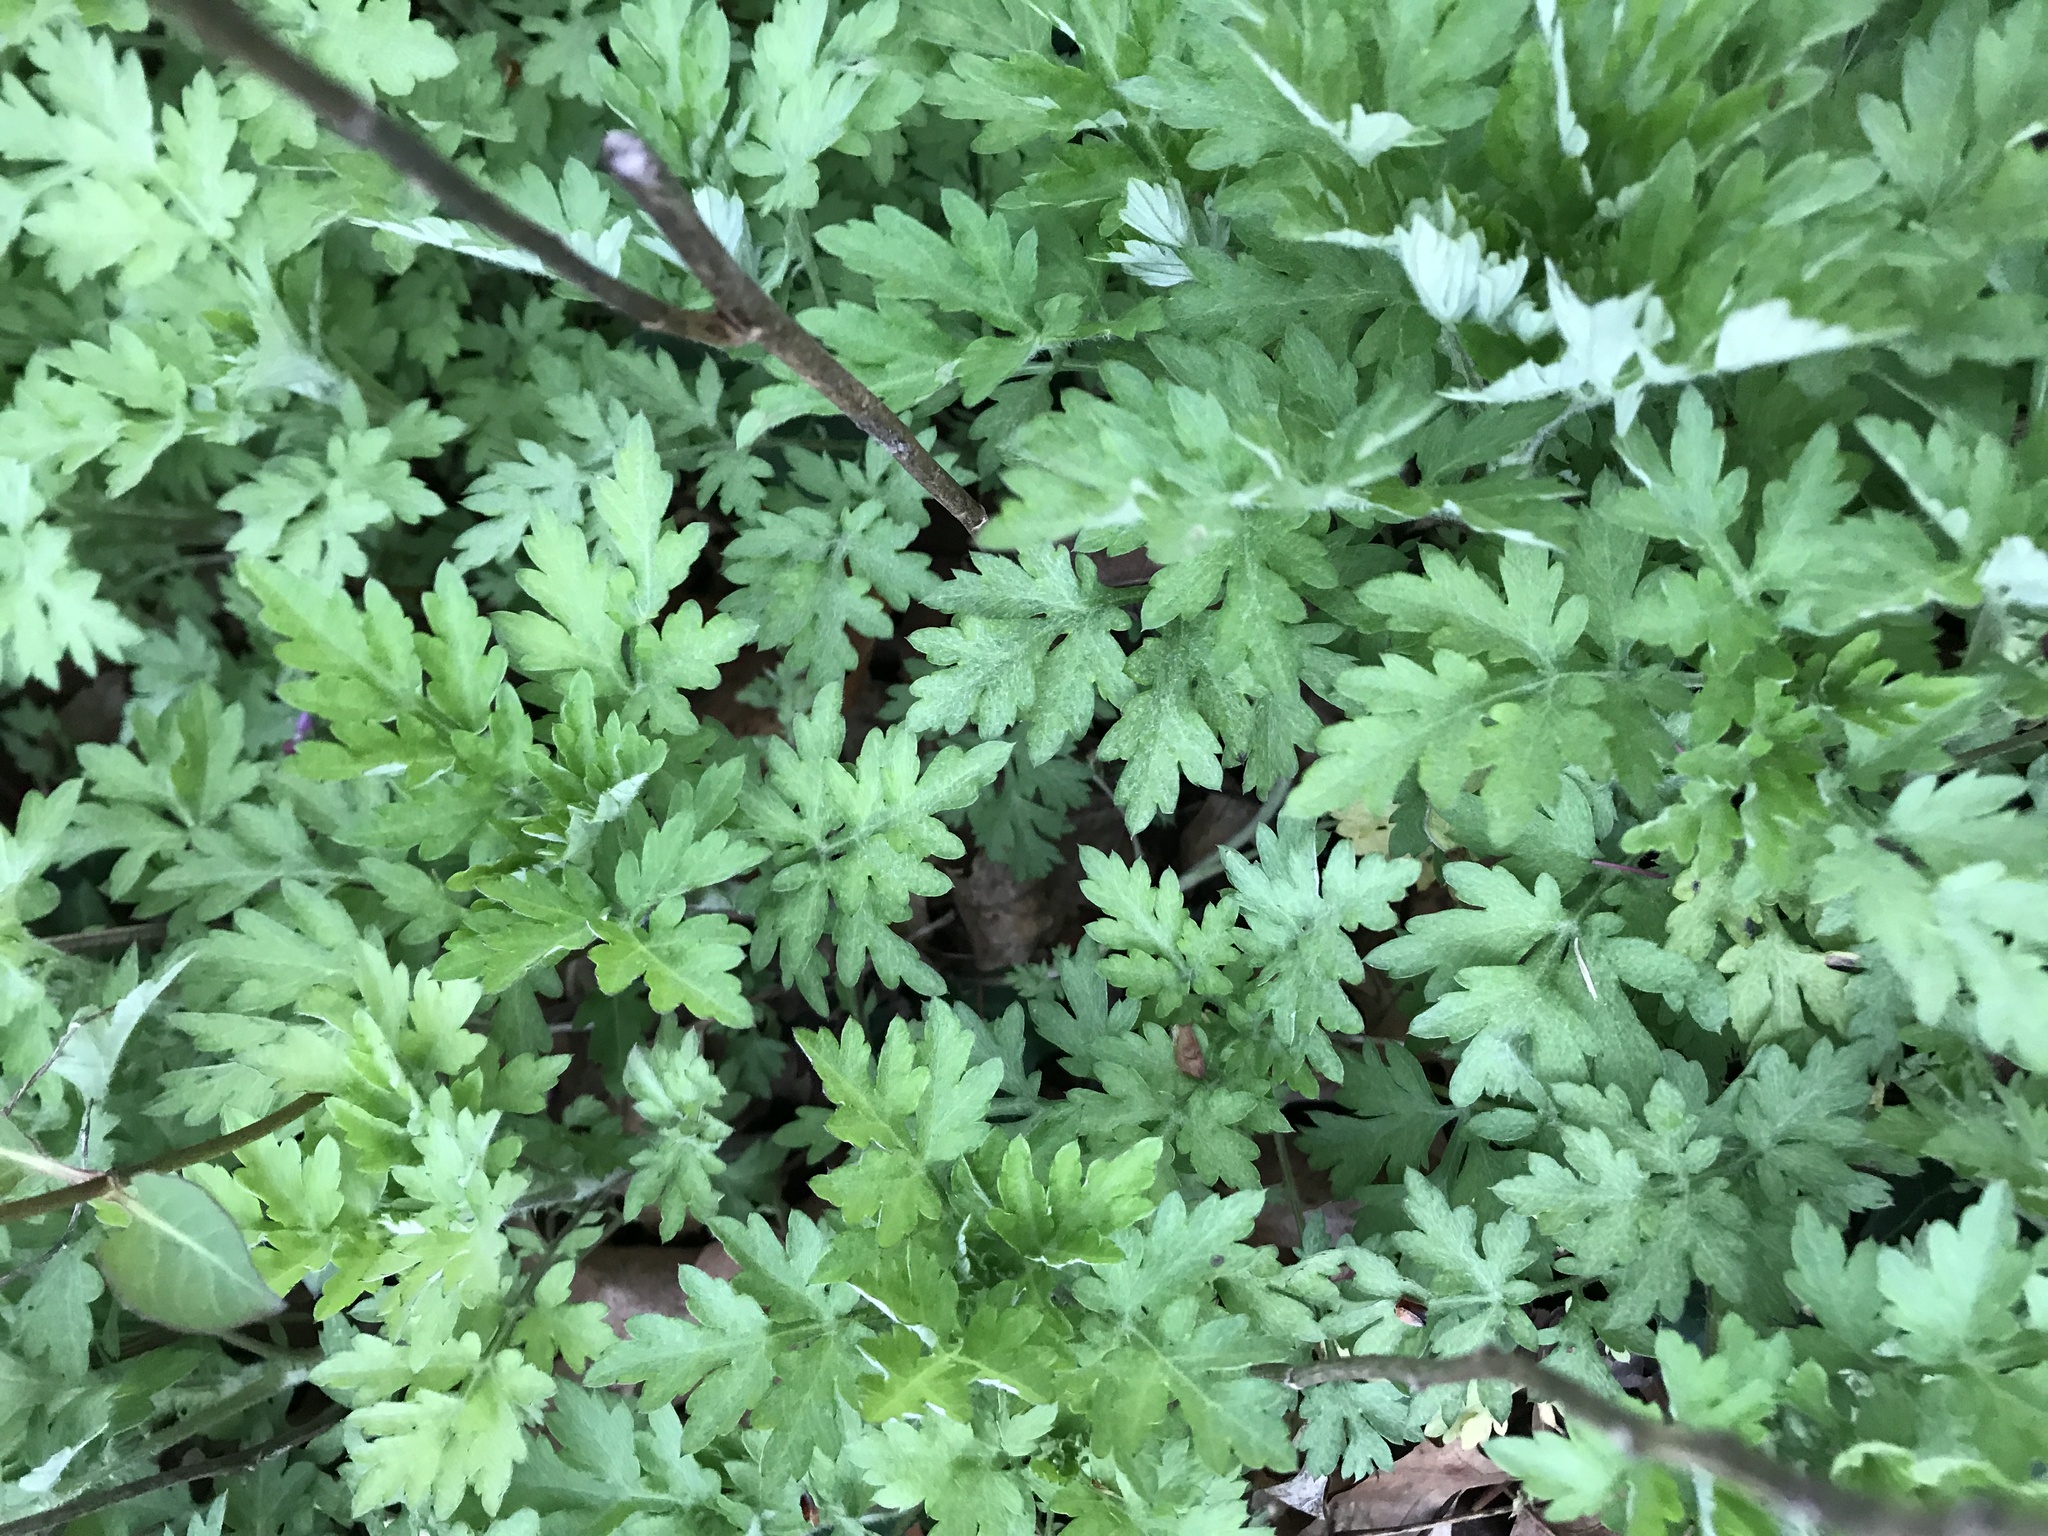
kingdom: Plantae
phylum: Tracheophyta
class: Magnoliopsida
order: Asterales
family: Asteraceae
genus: Artemisia
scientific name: Artemisia vulgaris
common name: Mugwort
